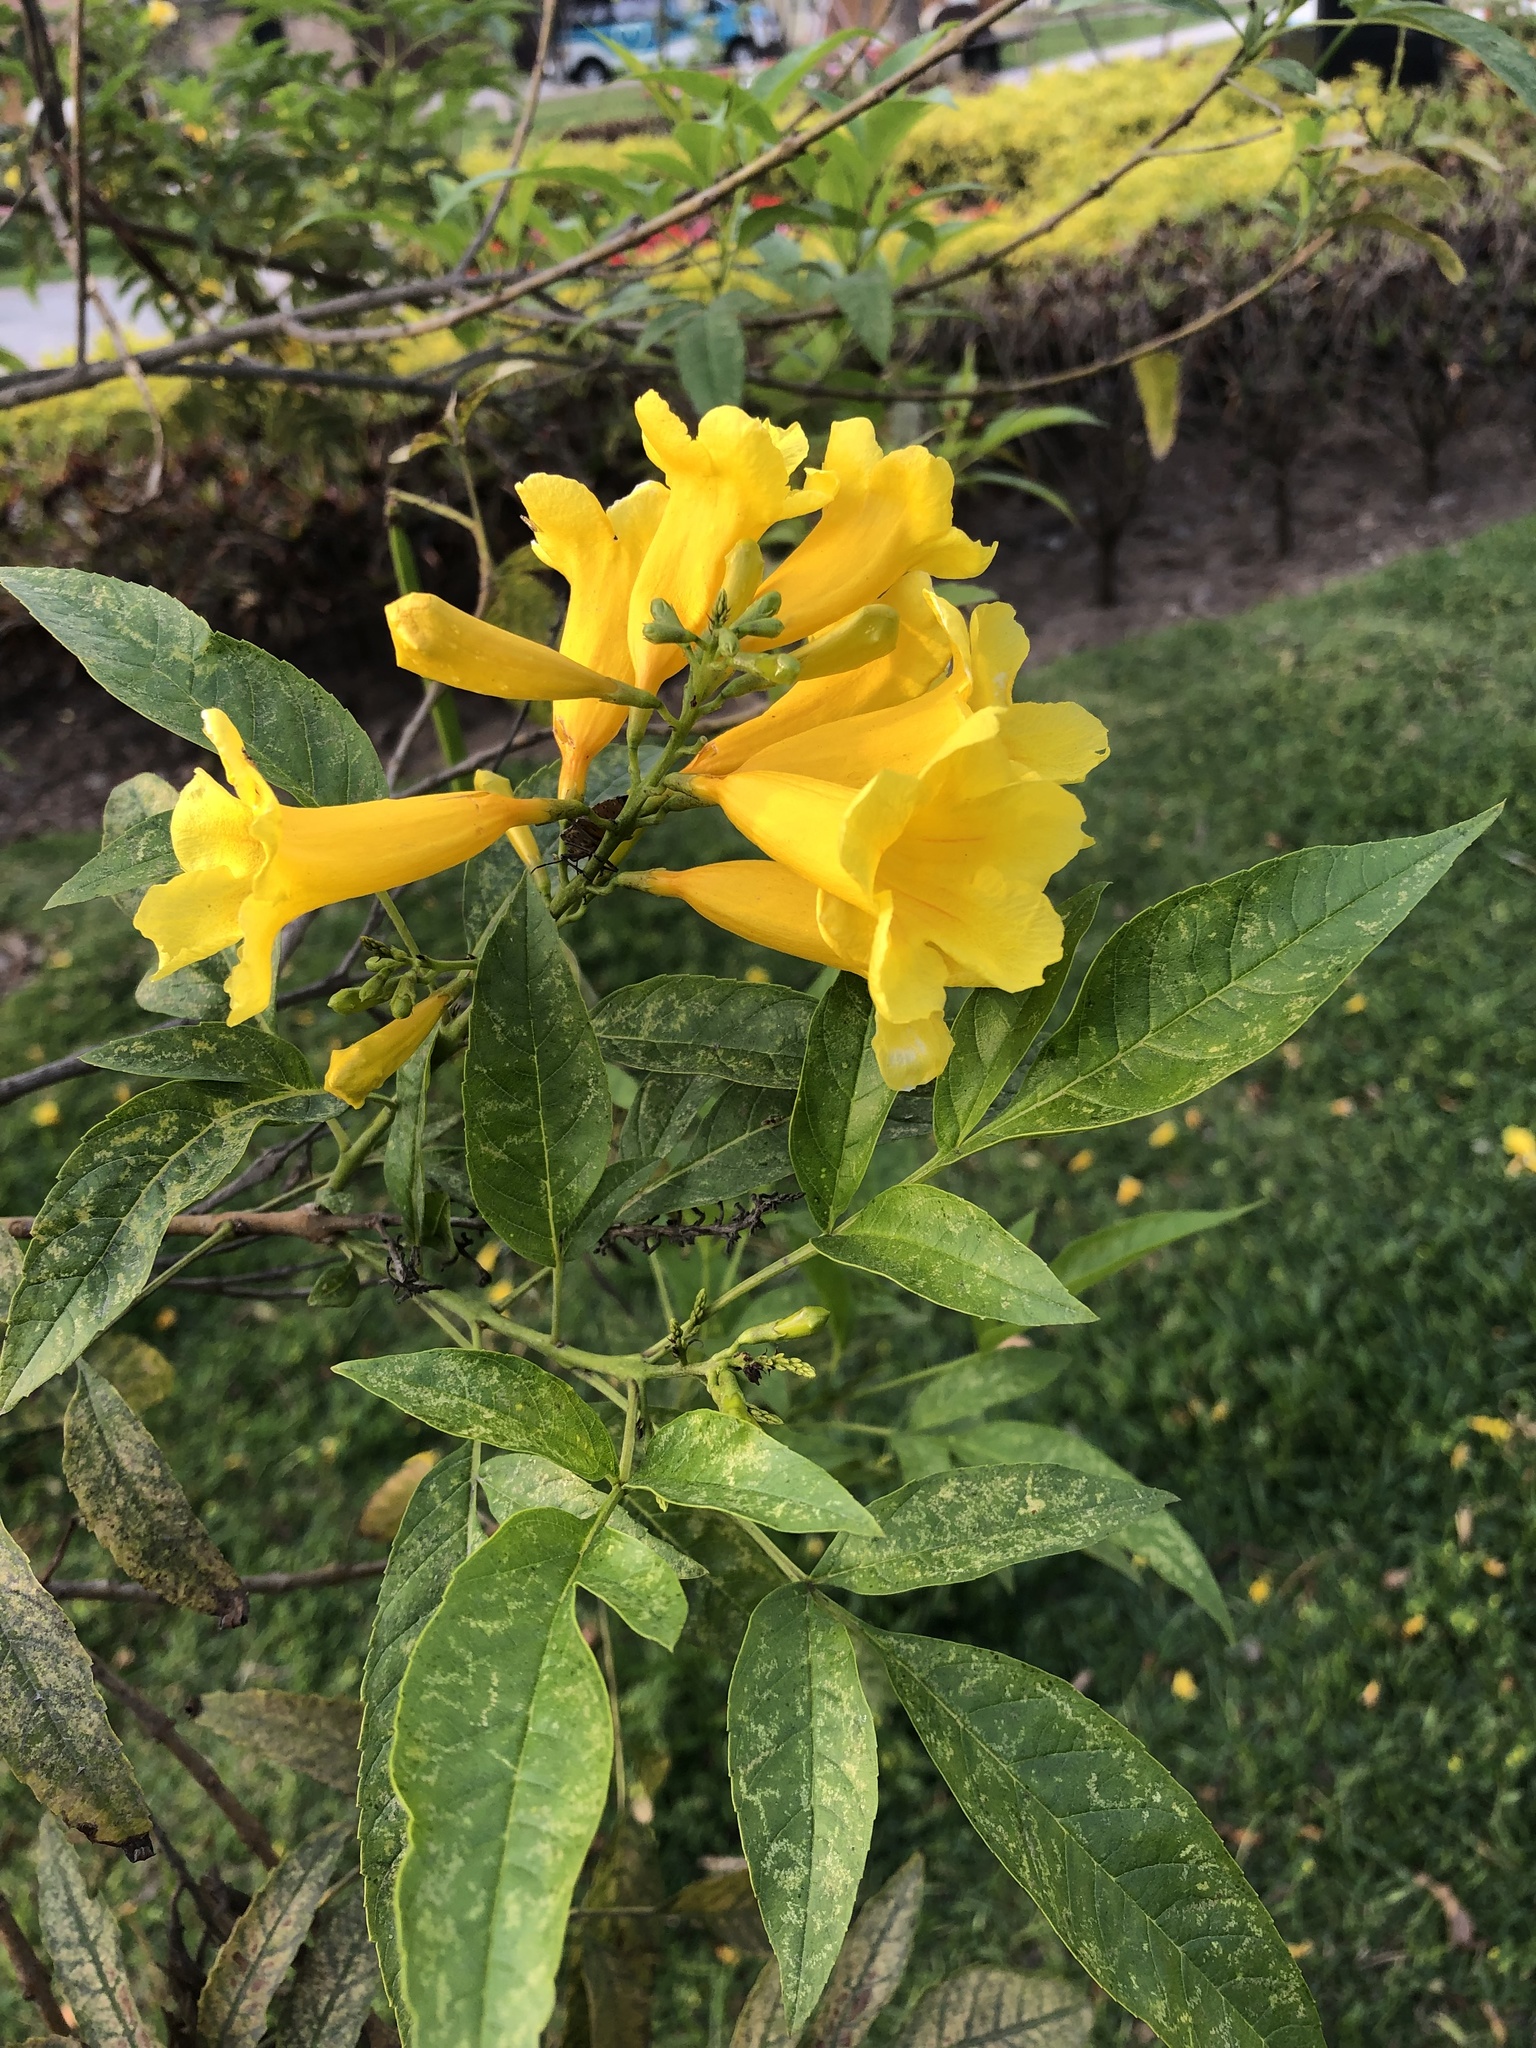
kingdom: Animalia
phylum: Arthropoda
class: Insecta
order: Hemiptera
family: Pentatomidae
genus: Pellaea
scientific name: Pellaea stictica
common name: Stink bug
